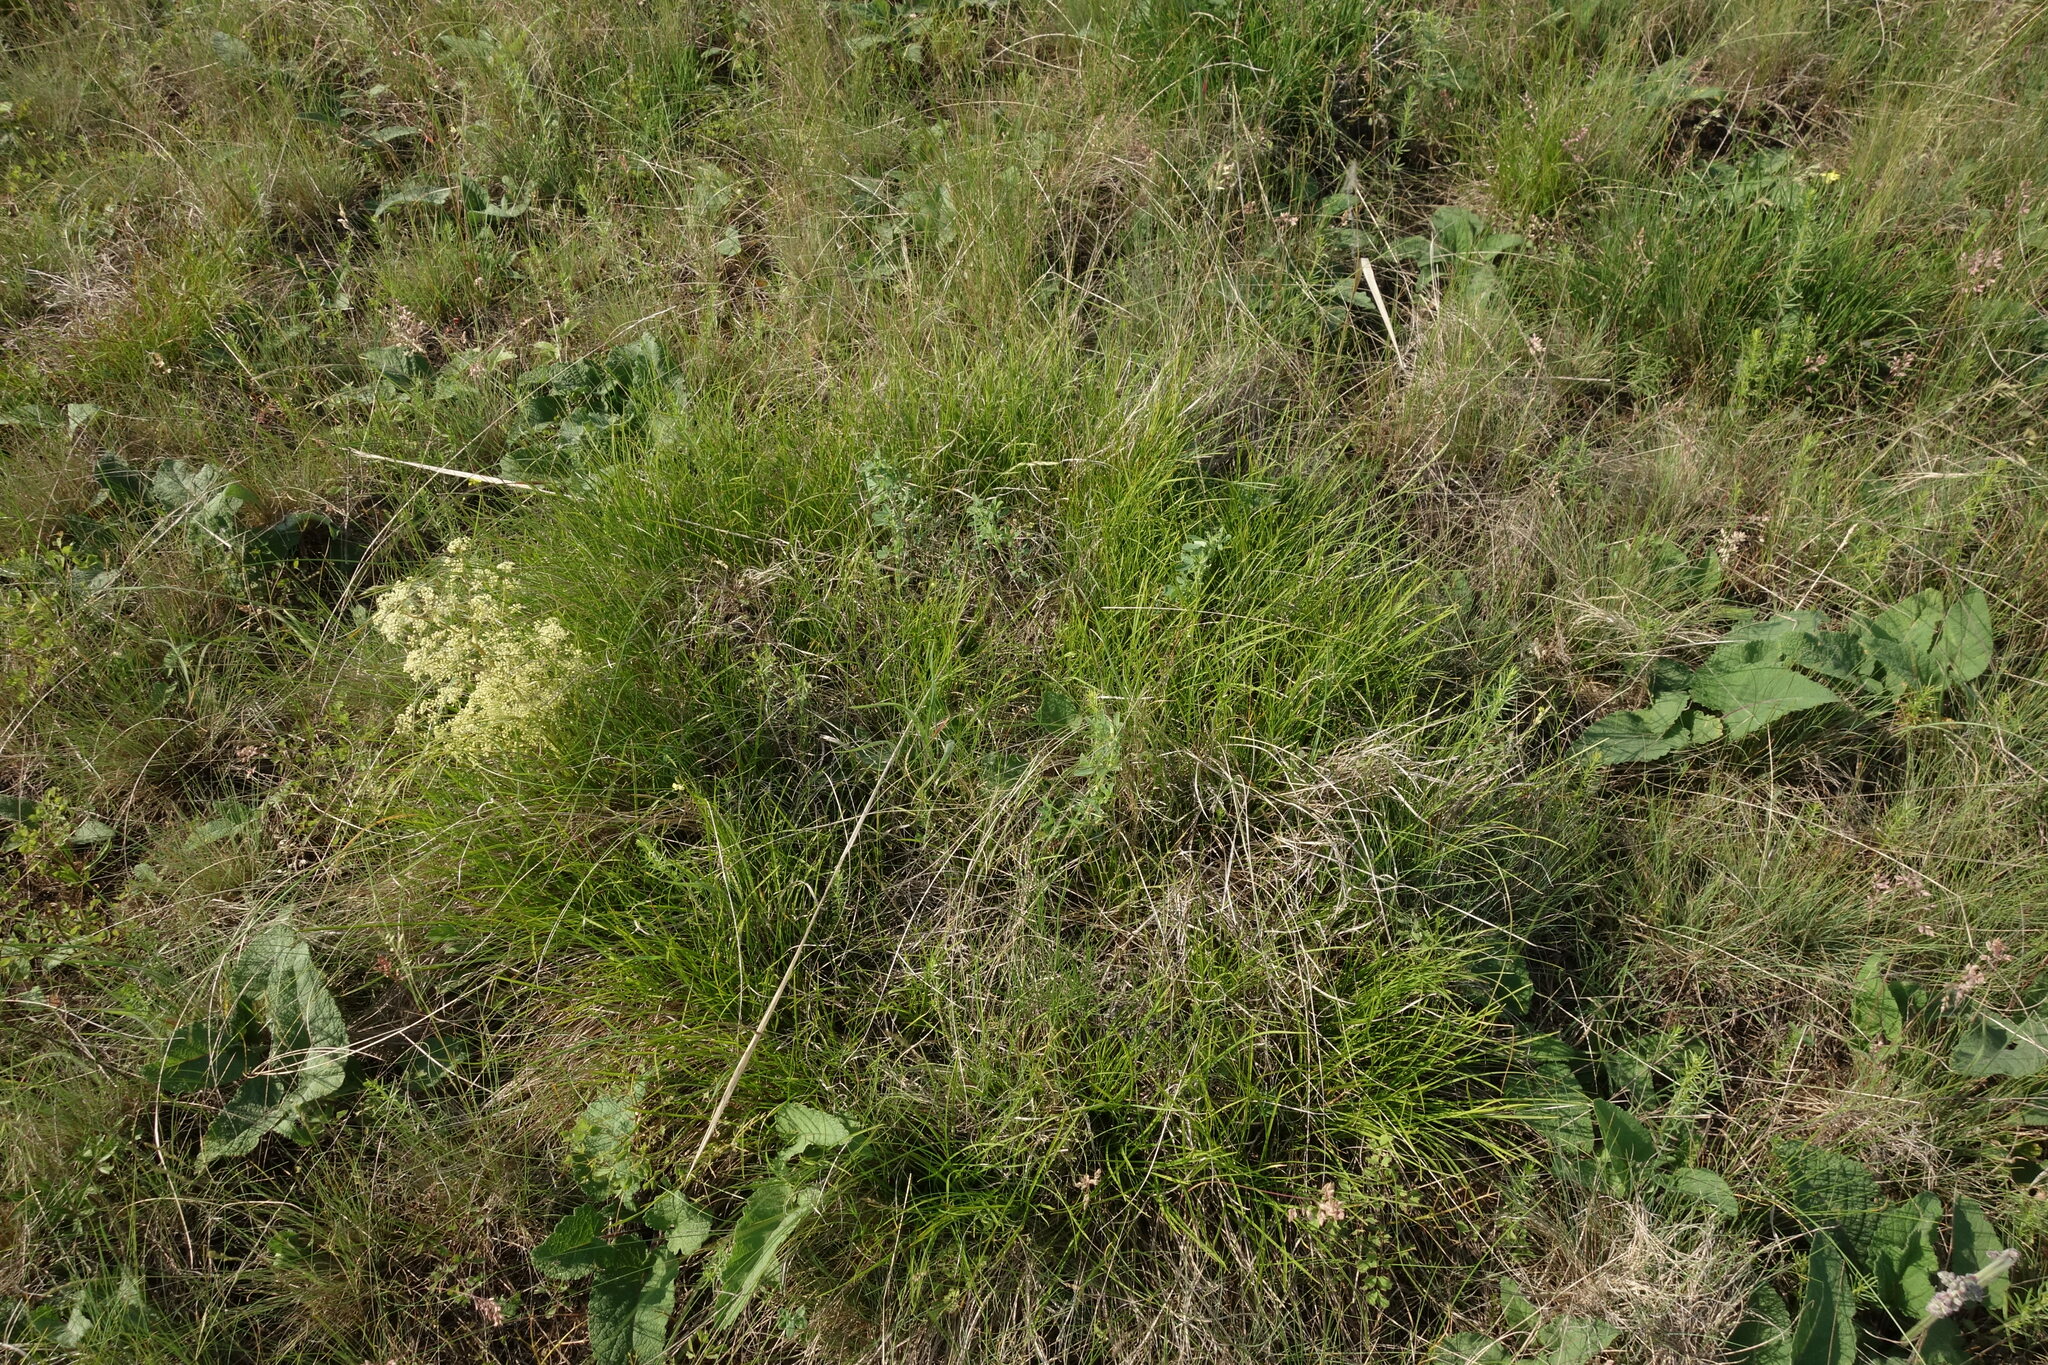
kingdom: Plantae
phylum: Tracheophyta
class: Liliopsida
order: Poales
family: Cyperaceae
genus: Carex
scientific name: Carex humilis
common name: Dwarf sedge
